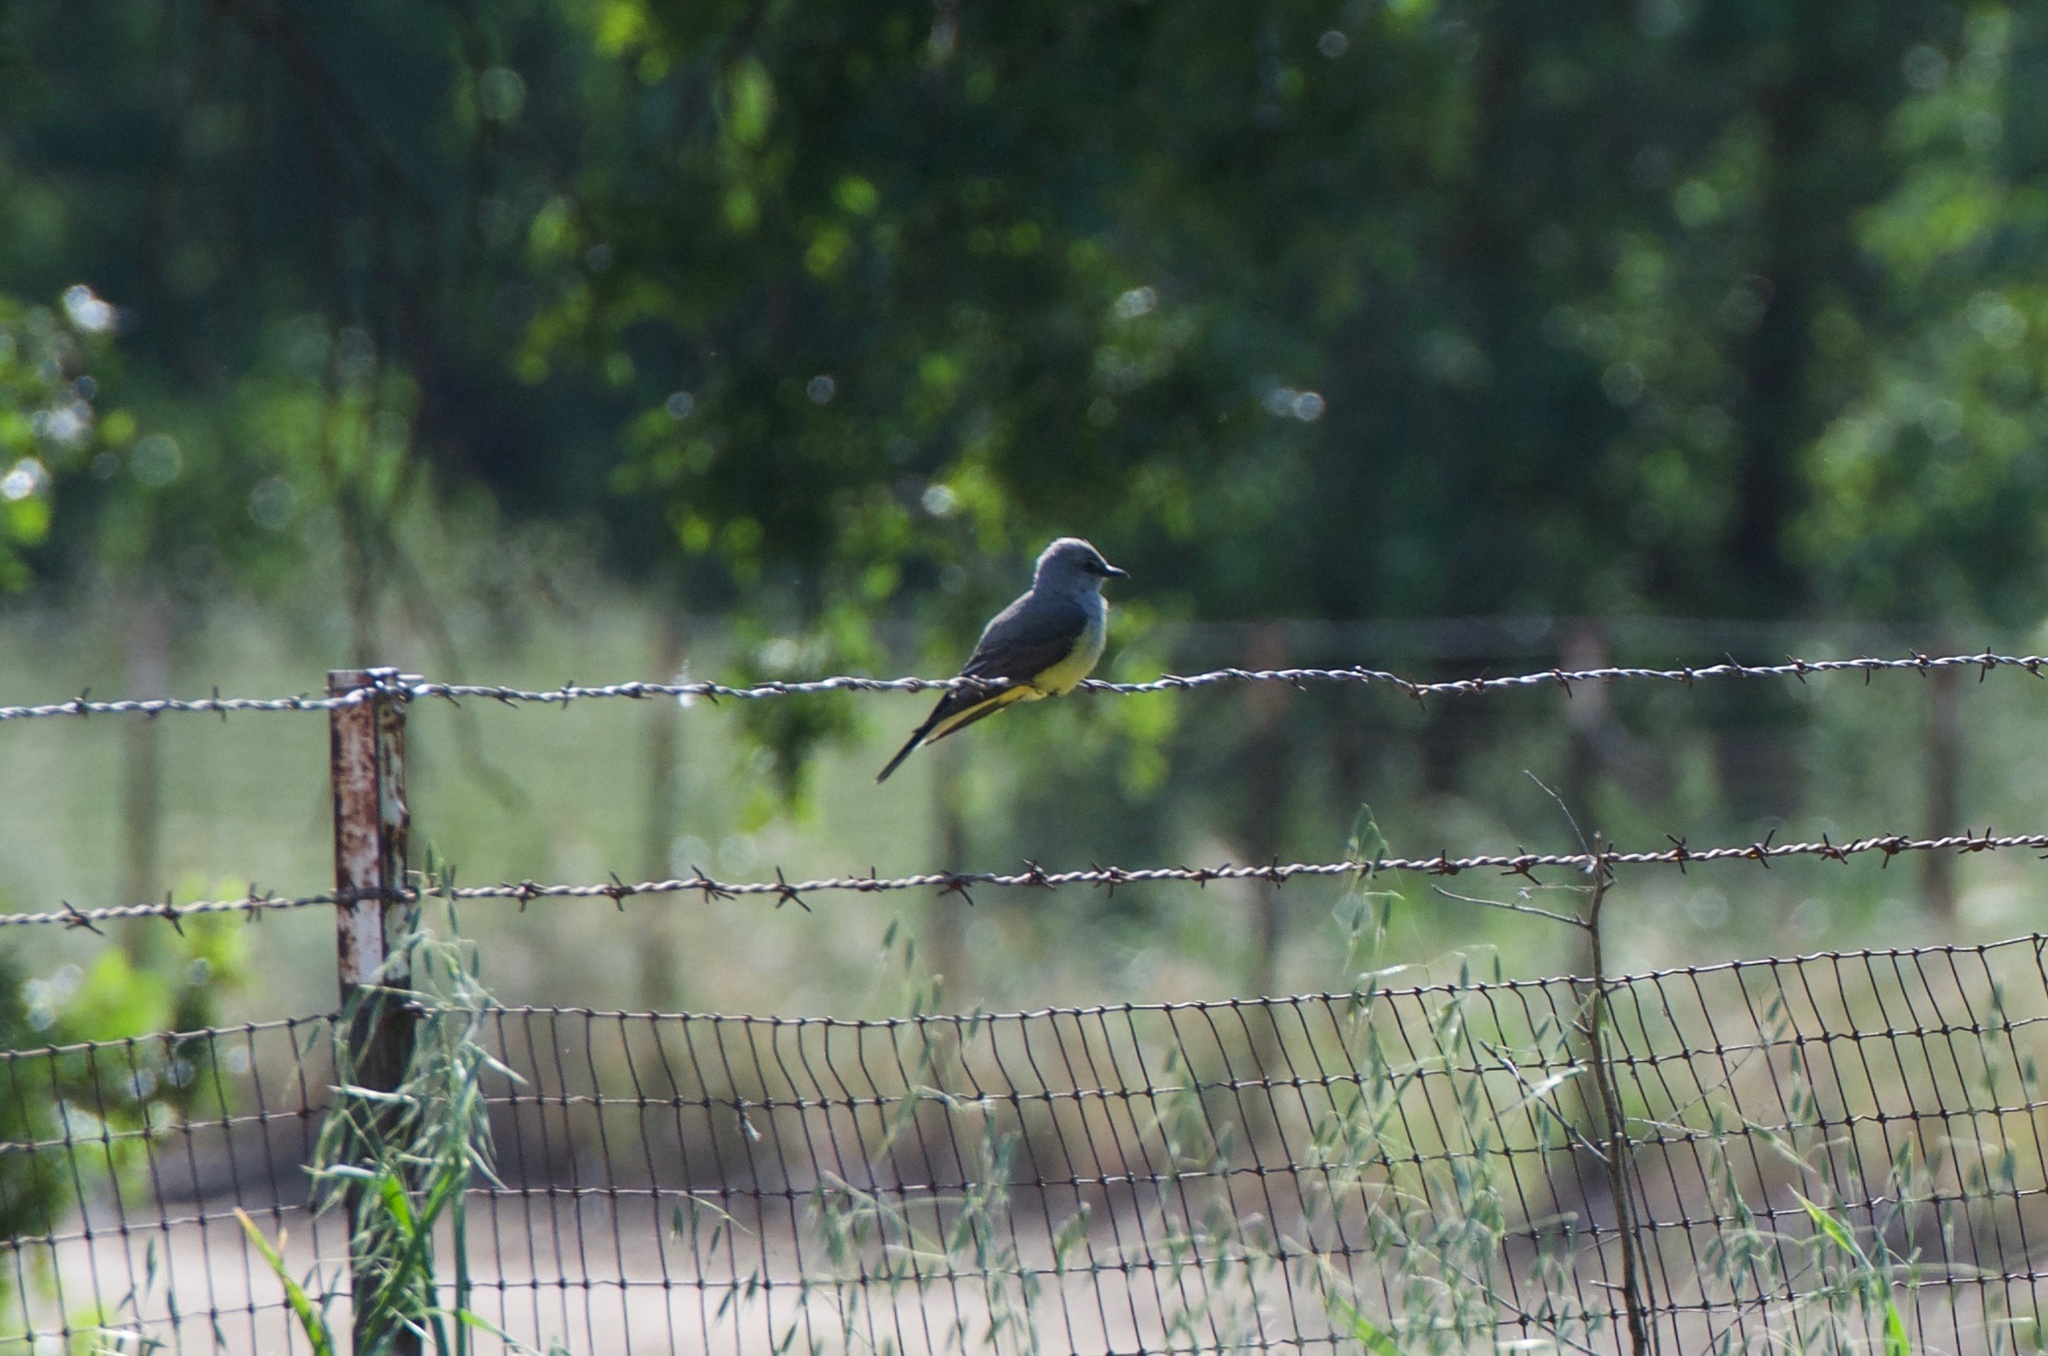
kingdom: Animalia
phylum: Chordata
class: Aves
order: Passeriformes
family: Tyrannidae
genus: Tyrannus
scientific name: Tyrannus verticalis
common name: Western kingbird
